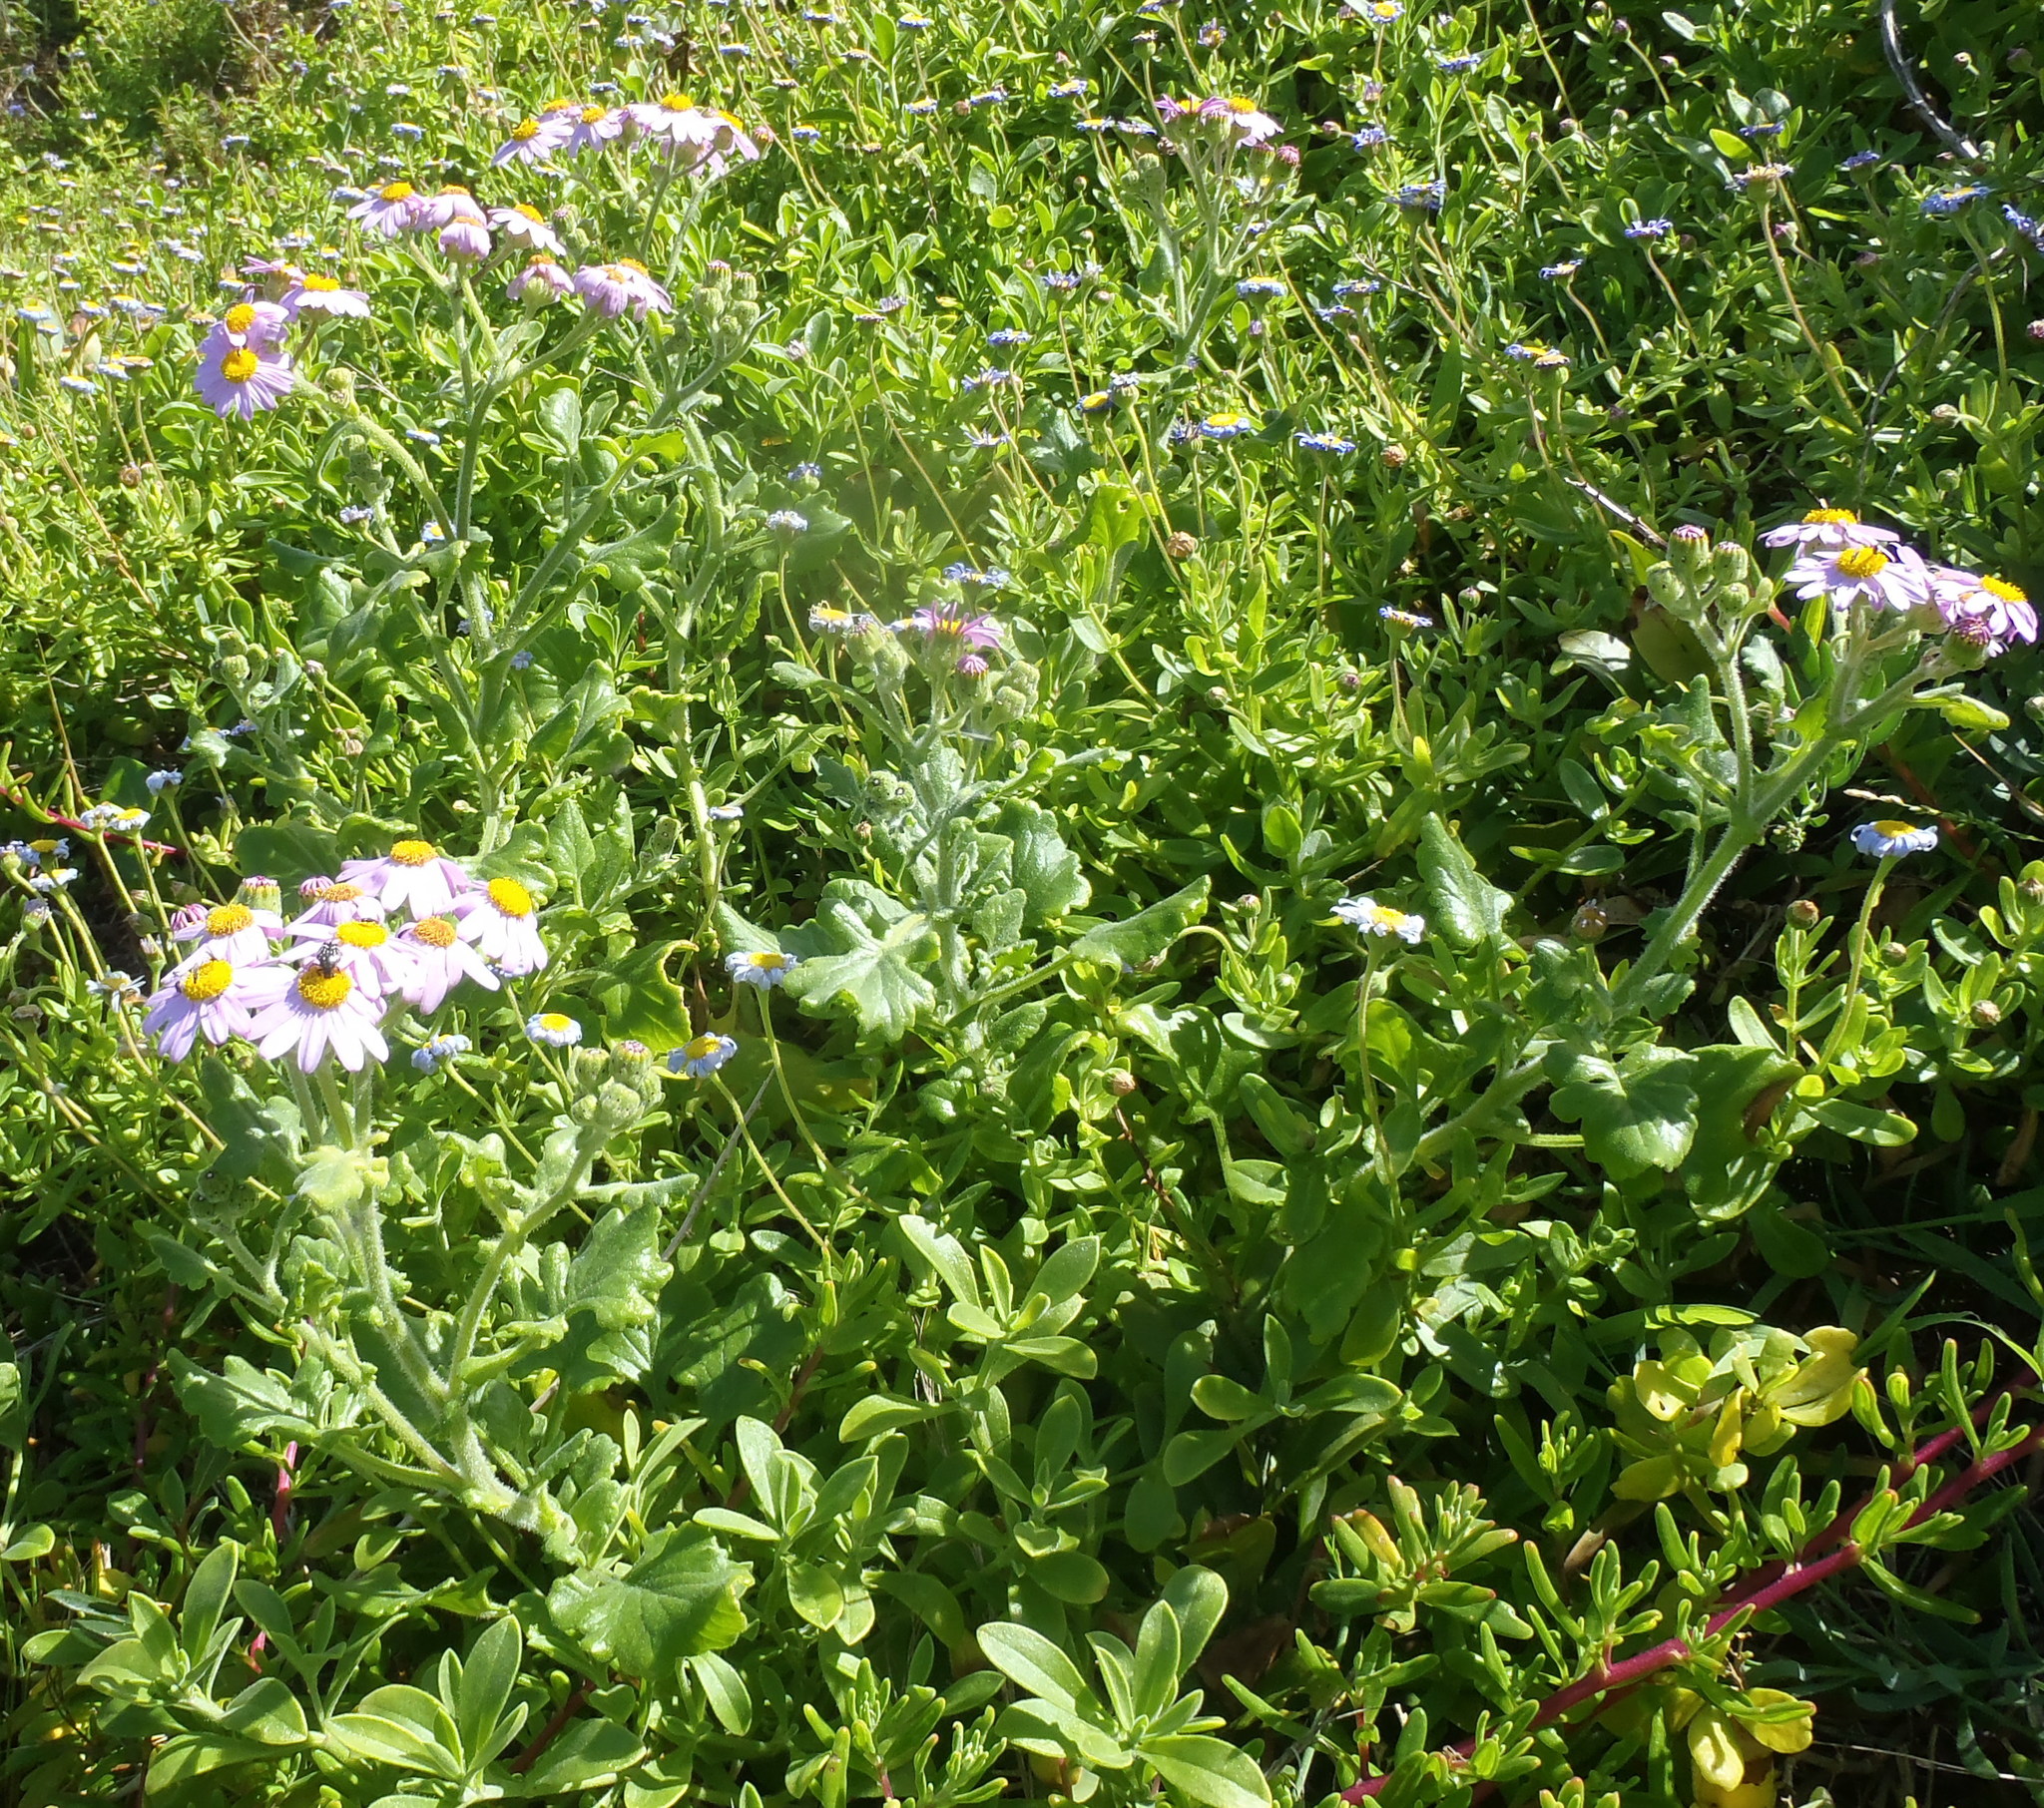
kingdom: Plantae
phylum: Tracheophyta
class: Magnoliopsida
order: Asterales
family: Asteraceae
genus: Senecio
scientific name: Senecio elegans
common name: Purple groundsel
